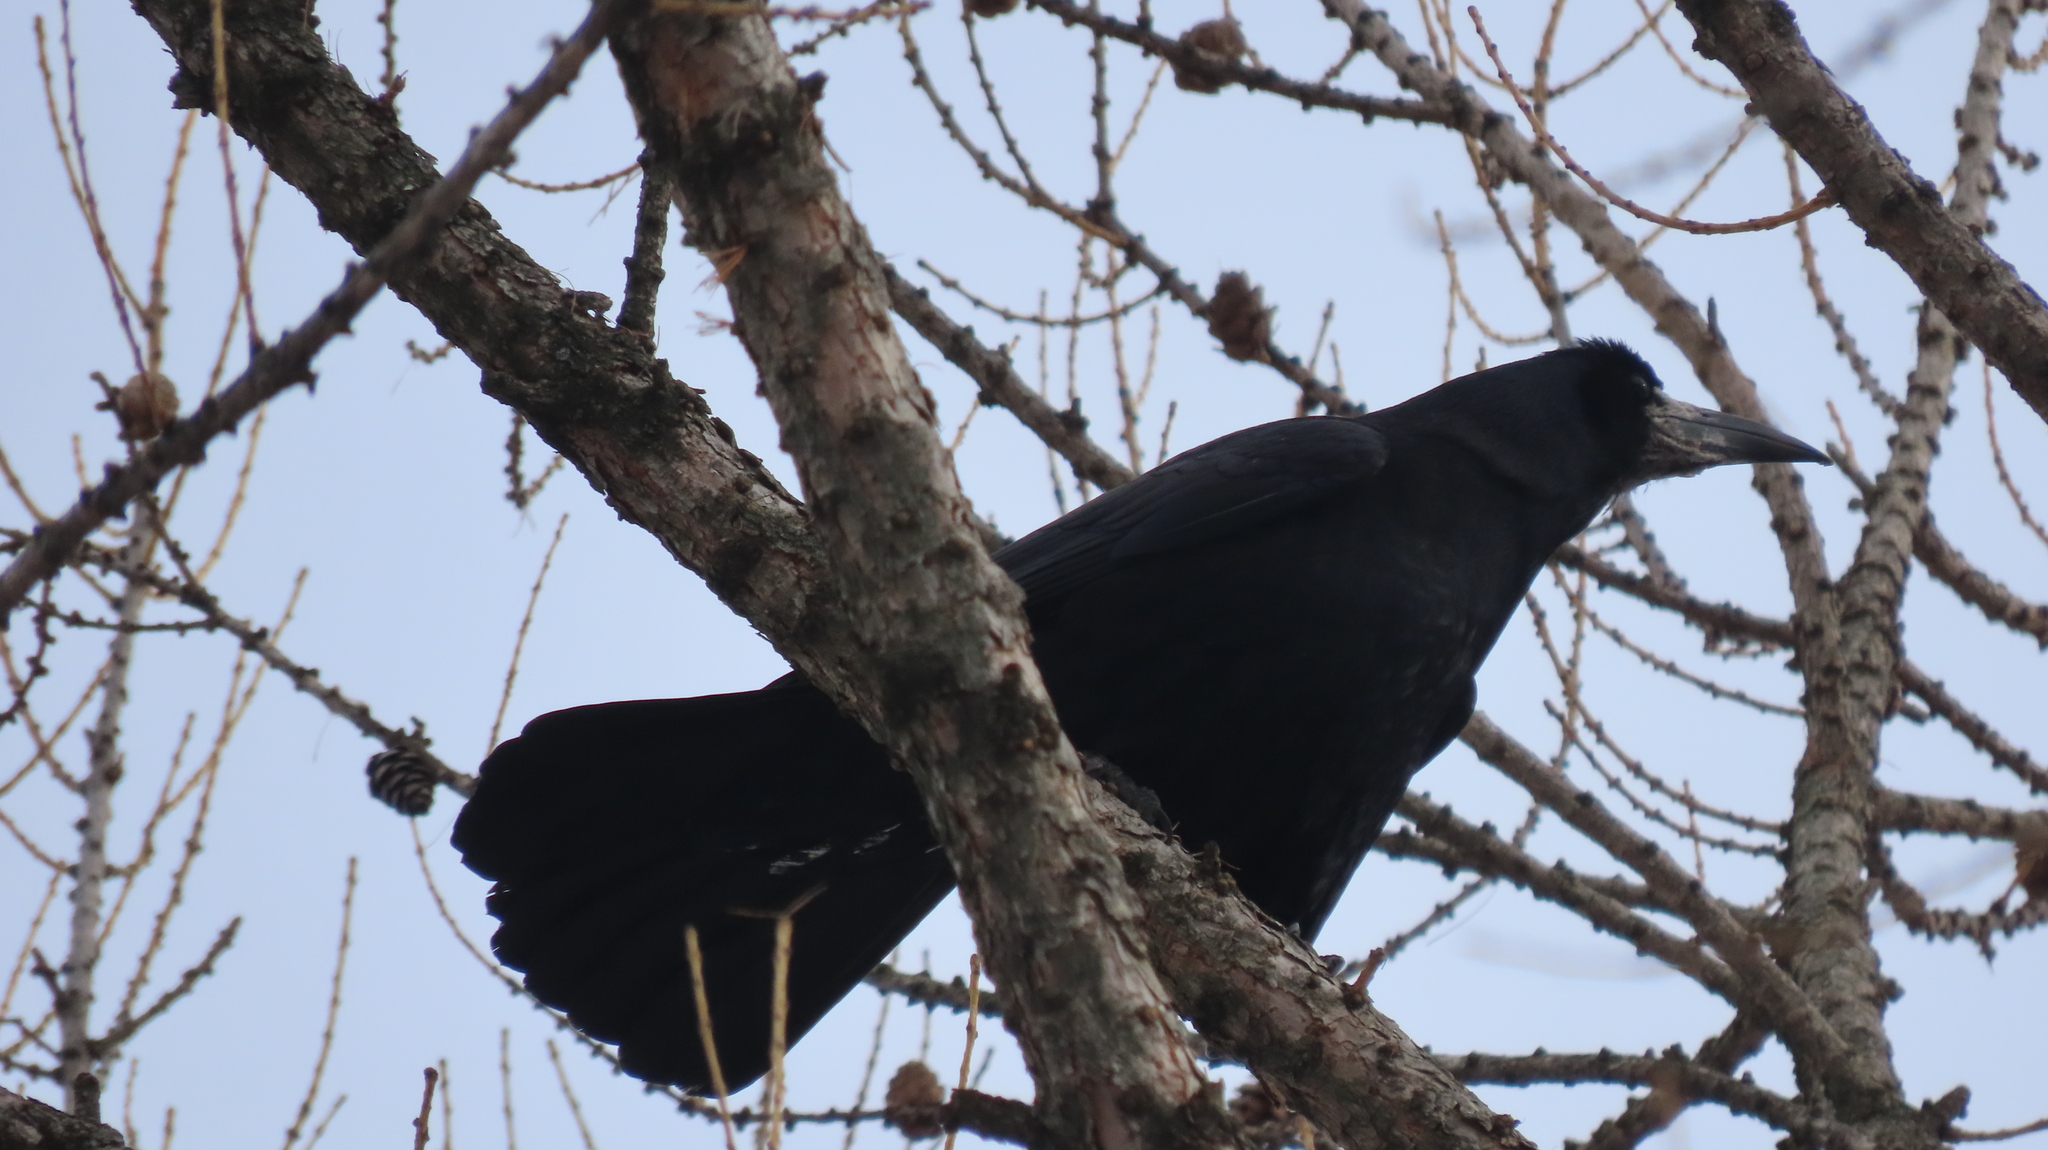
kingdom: Animalia
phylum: Chordata
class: Aves
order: Passeriformes
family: Corvidae
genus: Corvus
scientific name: Corvus frugilegus
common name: Rook
